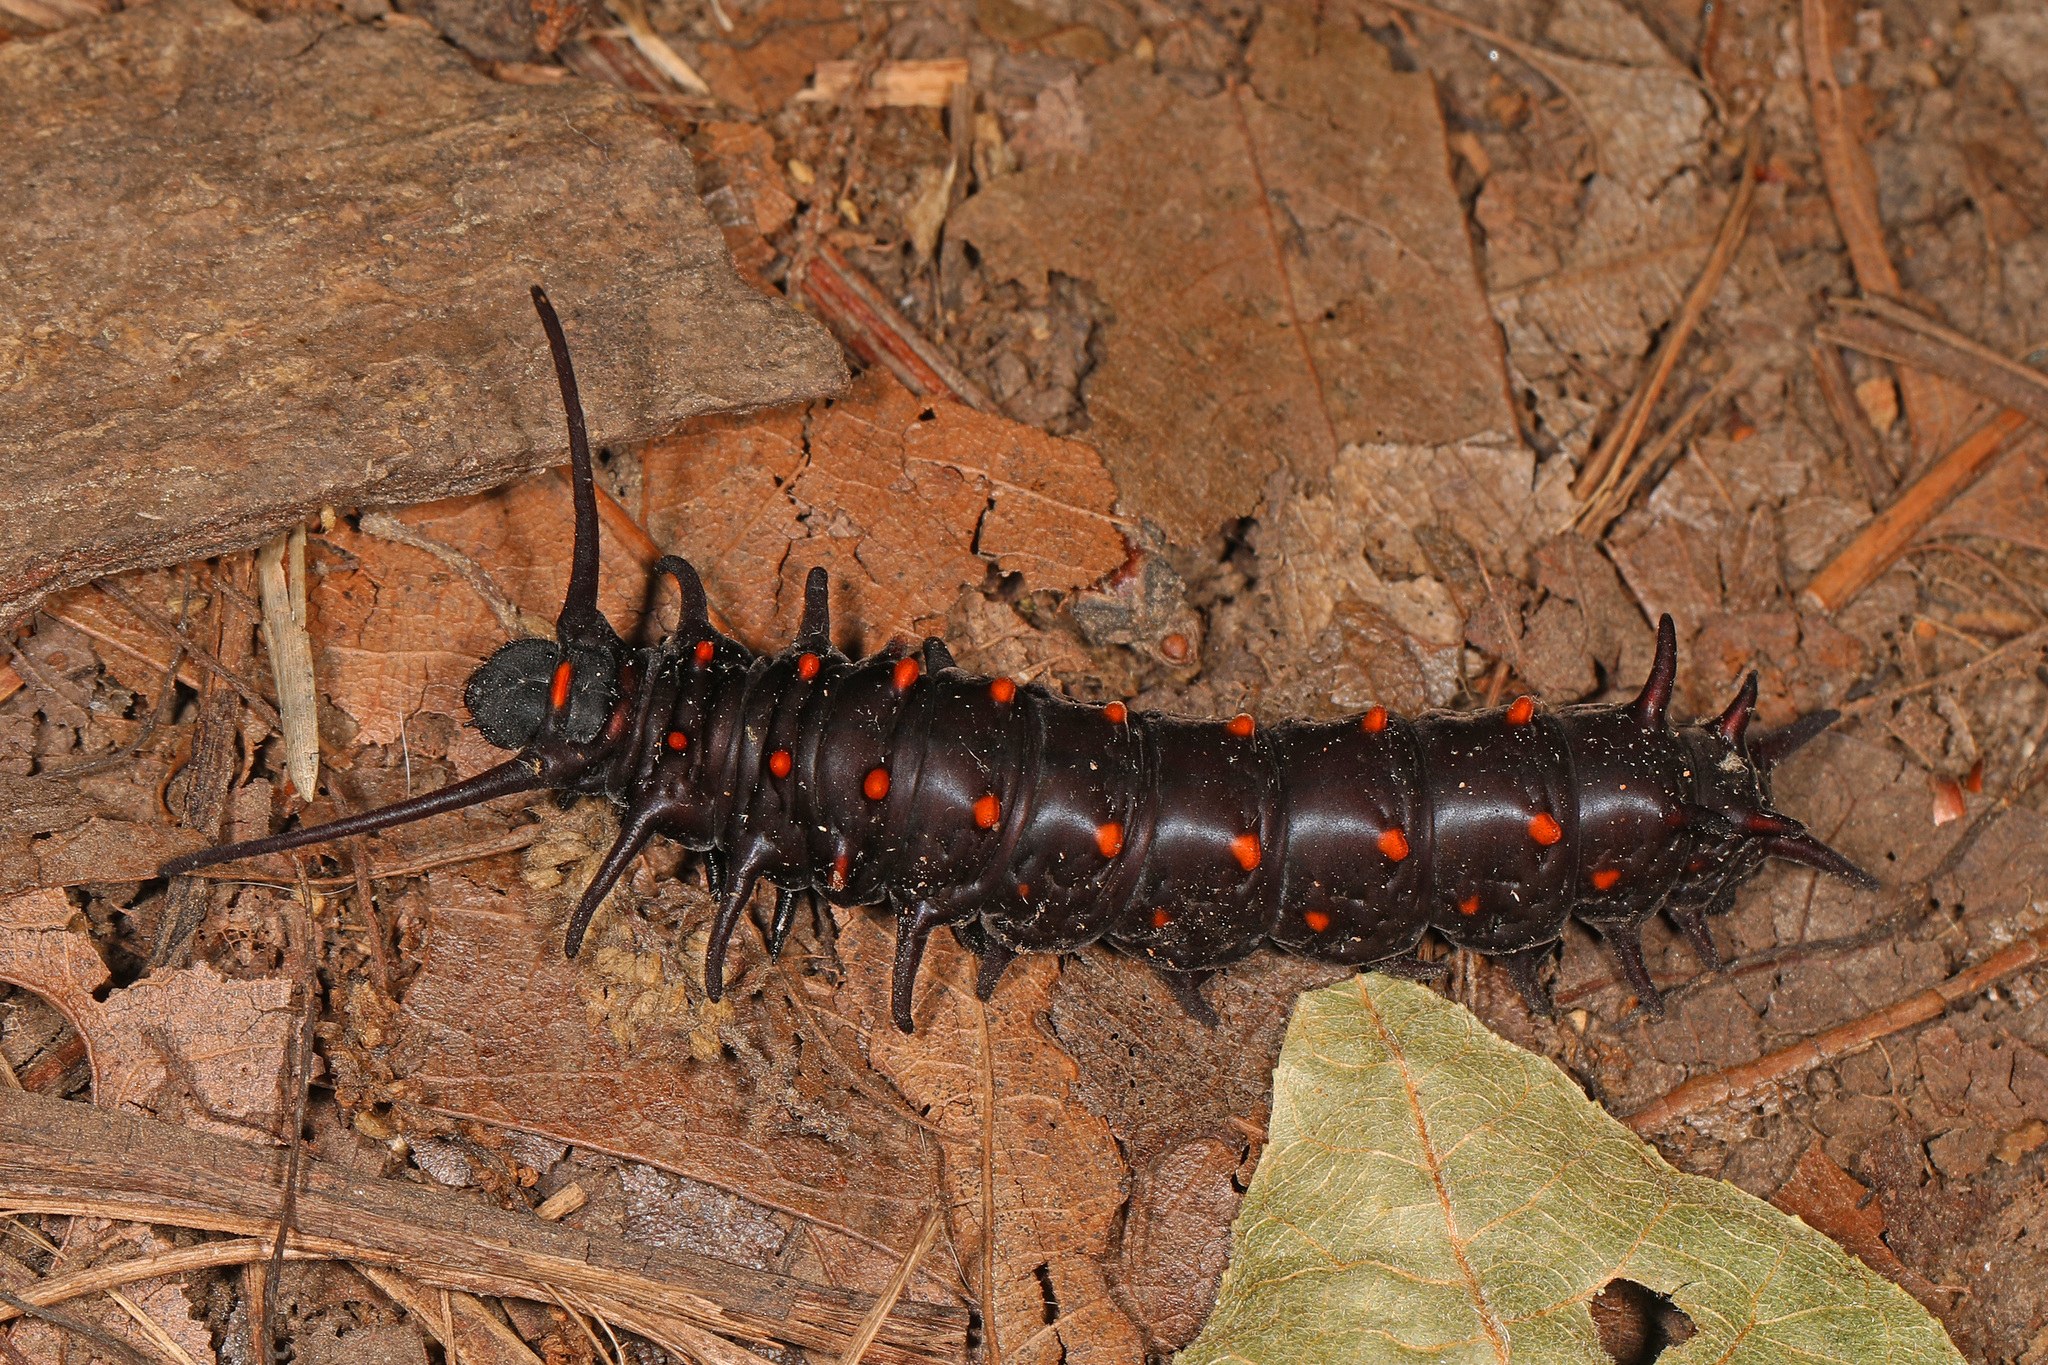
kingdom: Animalia
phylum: Arthropoda
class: Insecta
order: Lepidoptera
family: Papilionidae
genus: Battus
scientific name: Battus philenor
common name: Pipevine swallowtail
